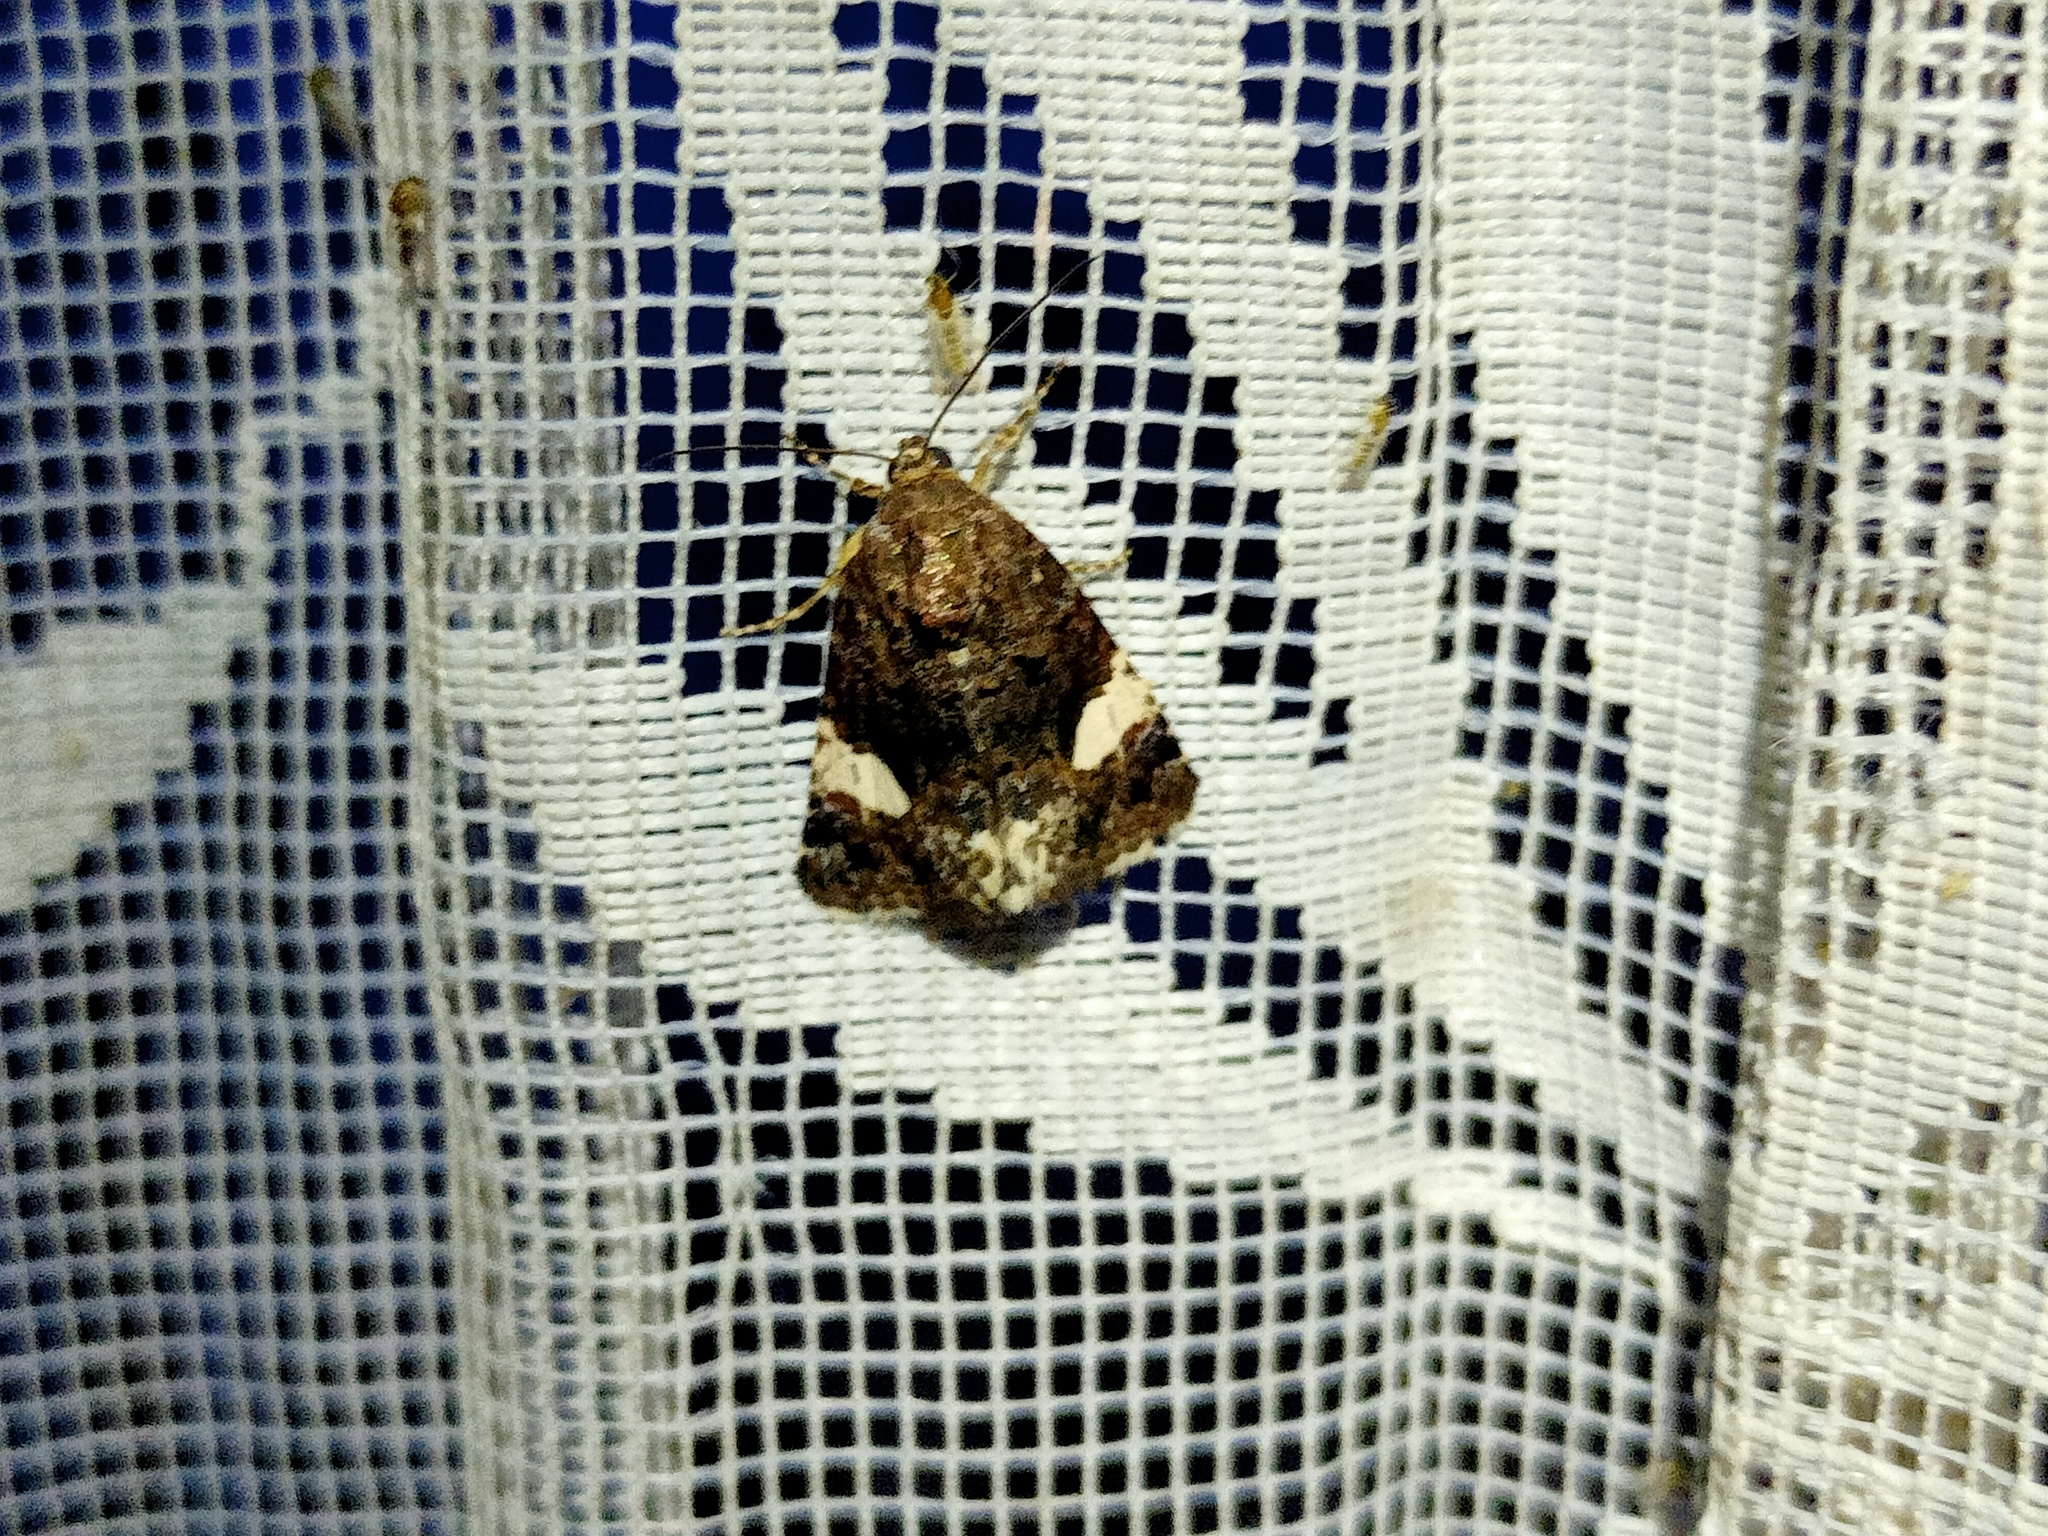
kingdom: Animalia
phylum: Arthropoda
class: Insecta
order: Lepidoptera
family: Erebidae
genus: Tyta
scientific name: Tyta luctuosa
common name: Four-spotted
